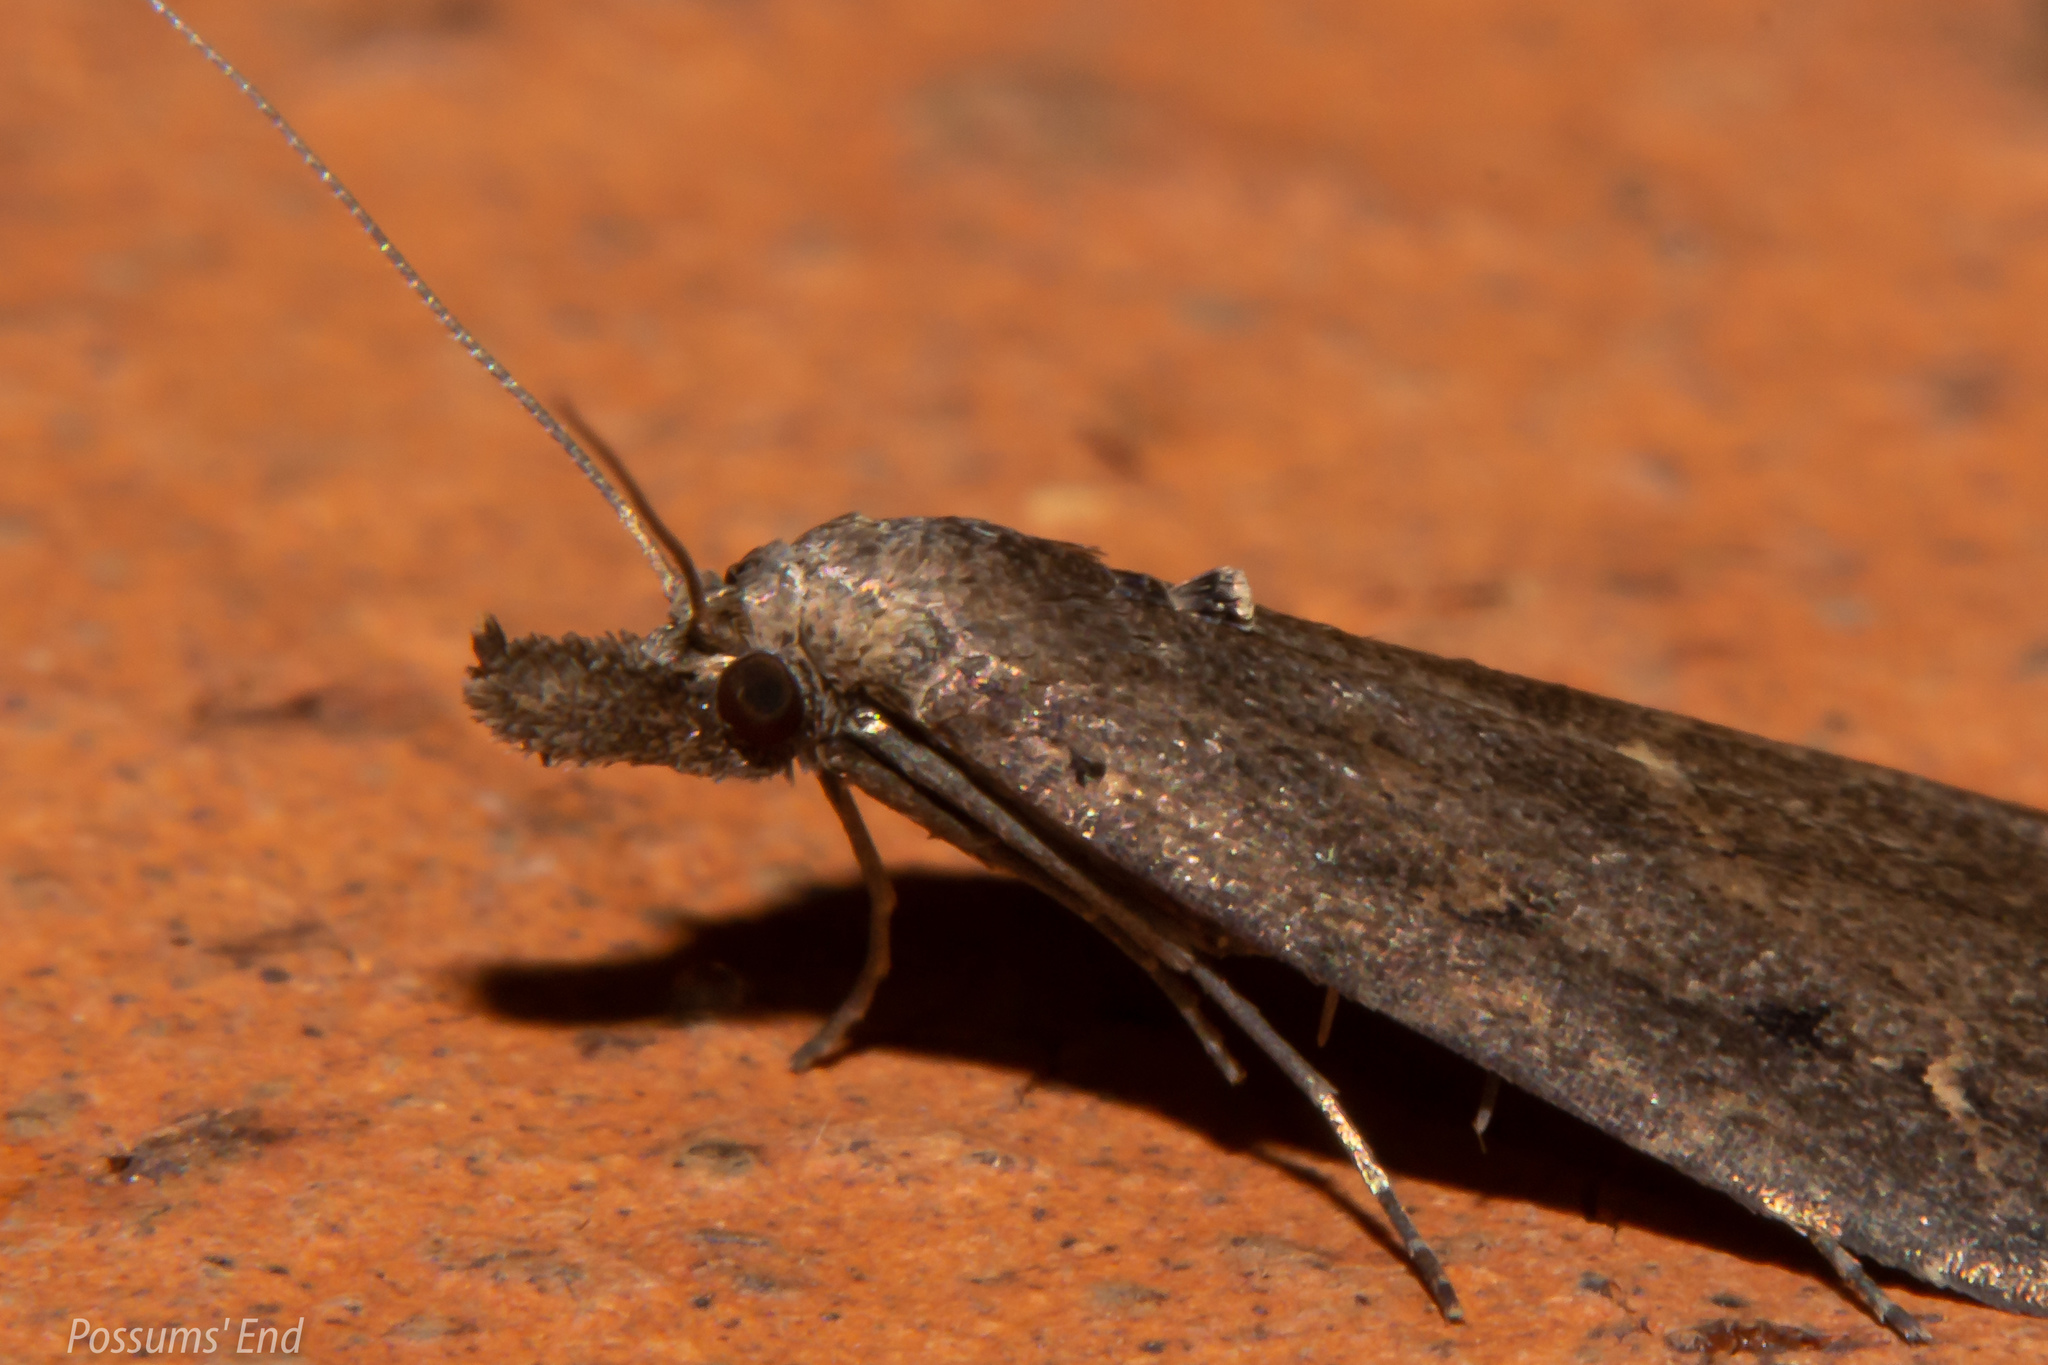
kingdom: Animalia
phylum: Arthropoda
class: Insecta
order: Lepidoptera
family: Erebidae
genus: Schrankia
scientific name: Schrankia costaestrigalis
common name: Pinion-streaked snout
